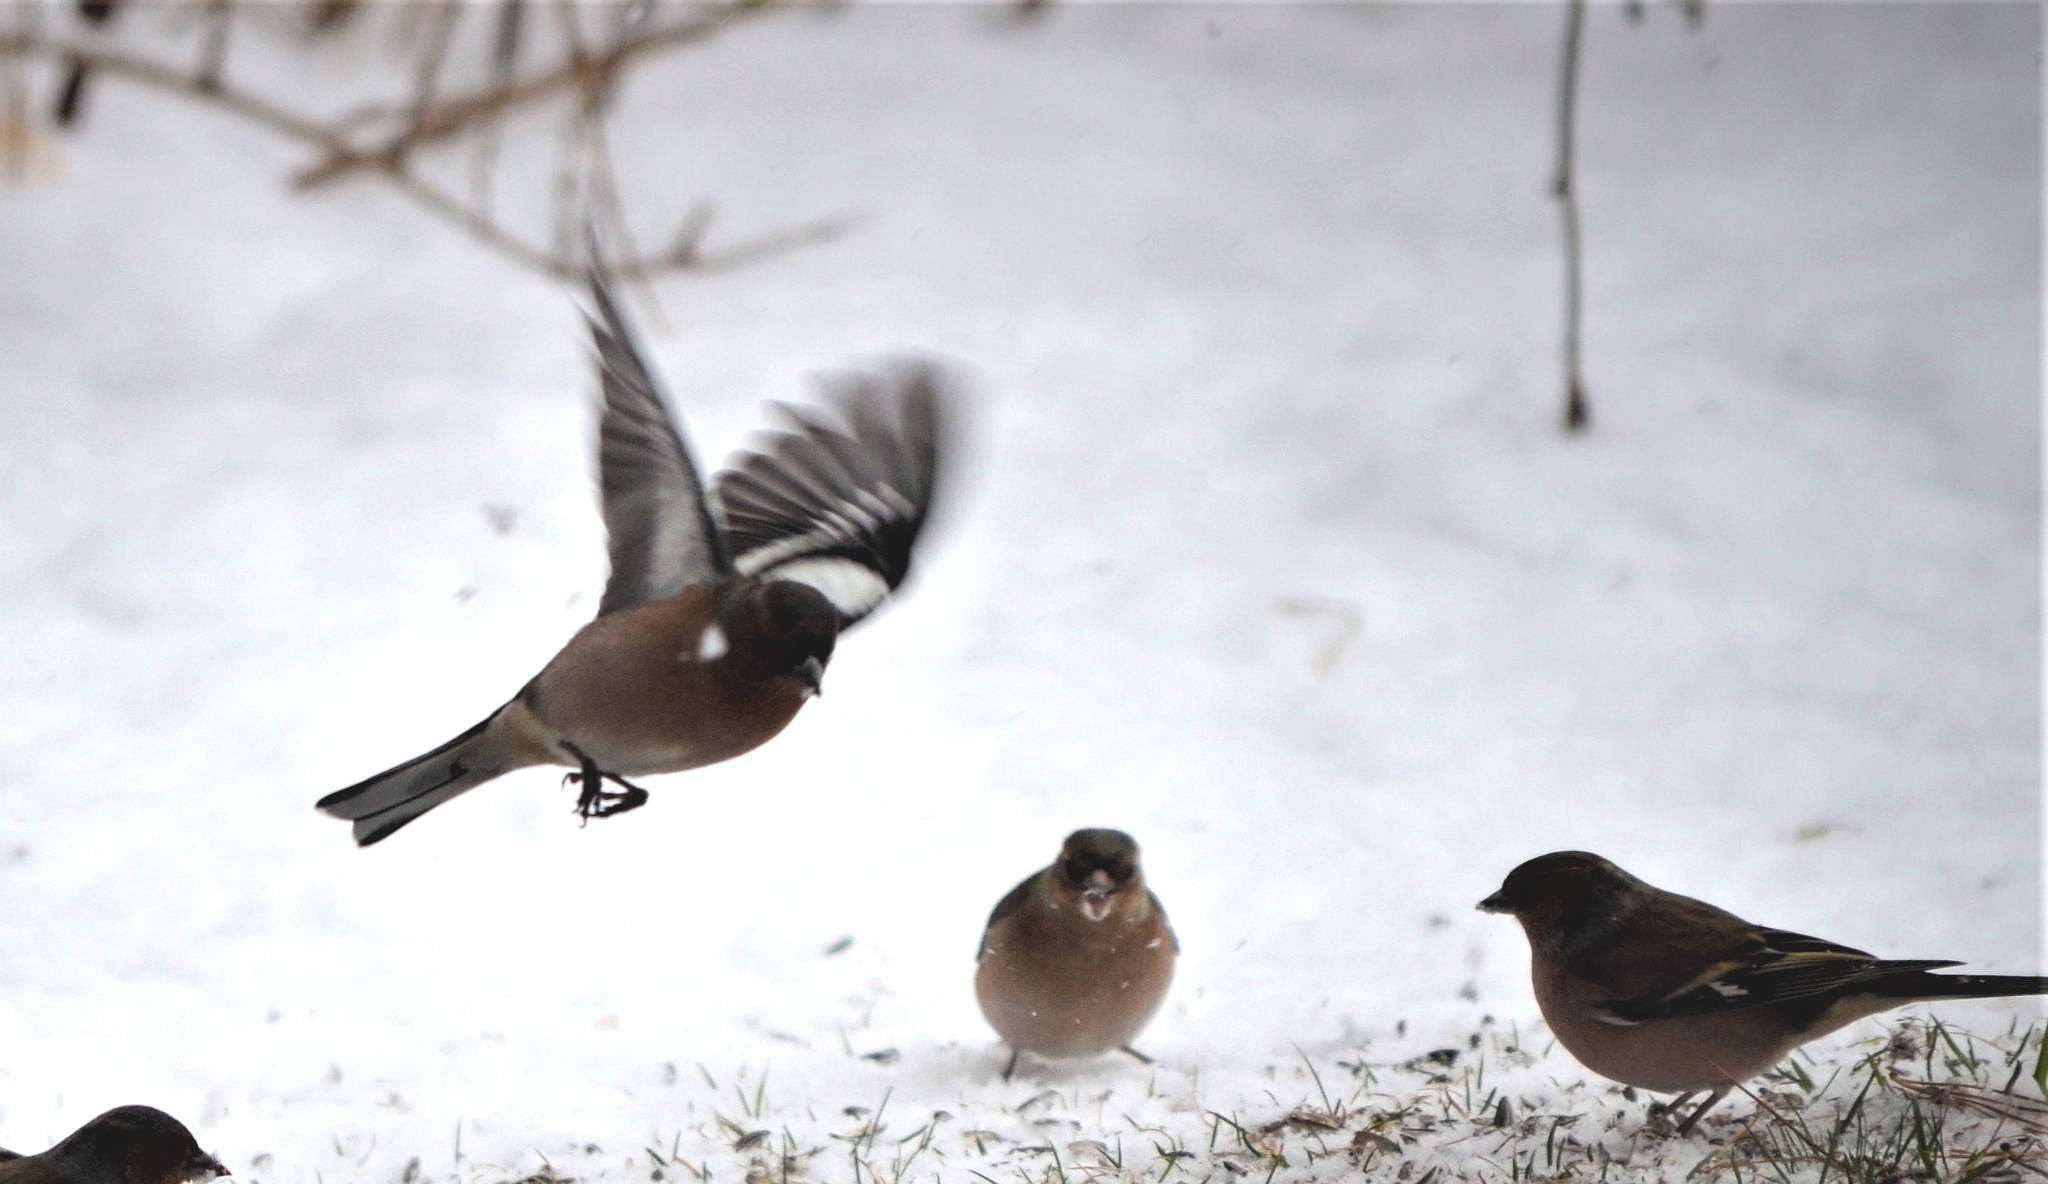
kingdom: Animalia
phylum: Chordata
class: Aves
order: Passeriformes
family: Fringillidae
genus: Fringilla
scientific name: Fringilla coelebs
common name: Common chaffinch
